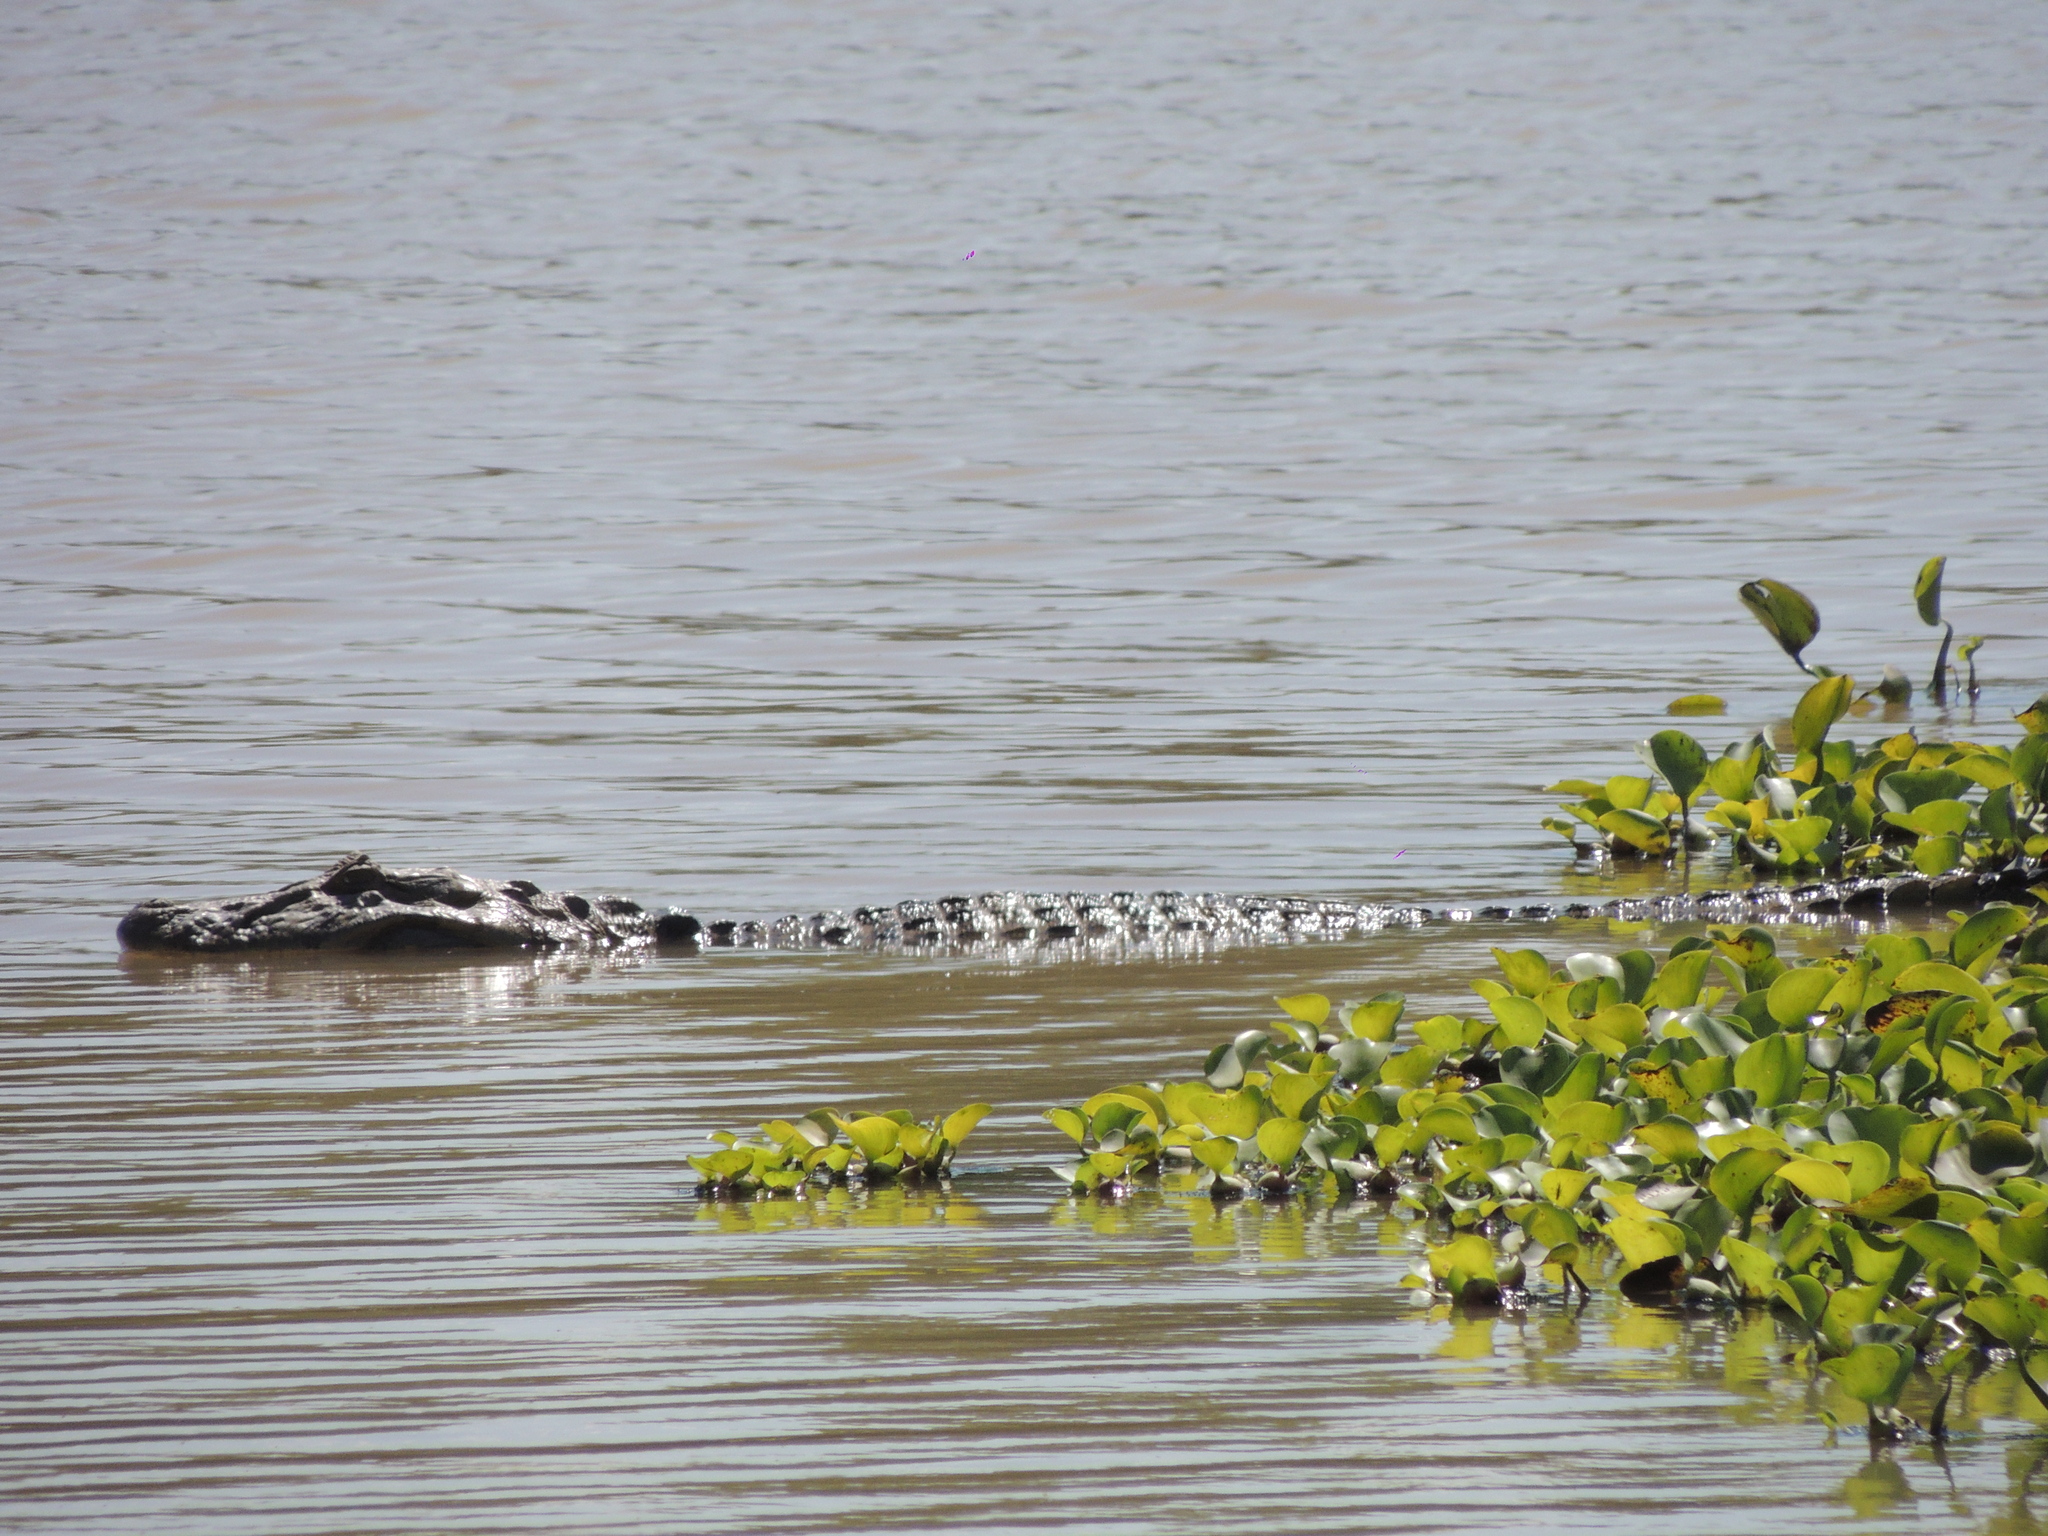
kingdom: Animalia
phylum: Chordata
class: Crocodylia
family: Alligatoridae
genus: Caiman
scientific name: Caiman latirostris
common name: Broad-snouted caiman
